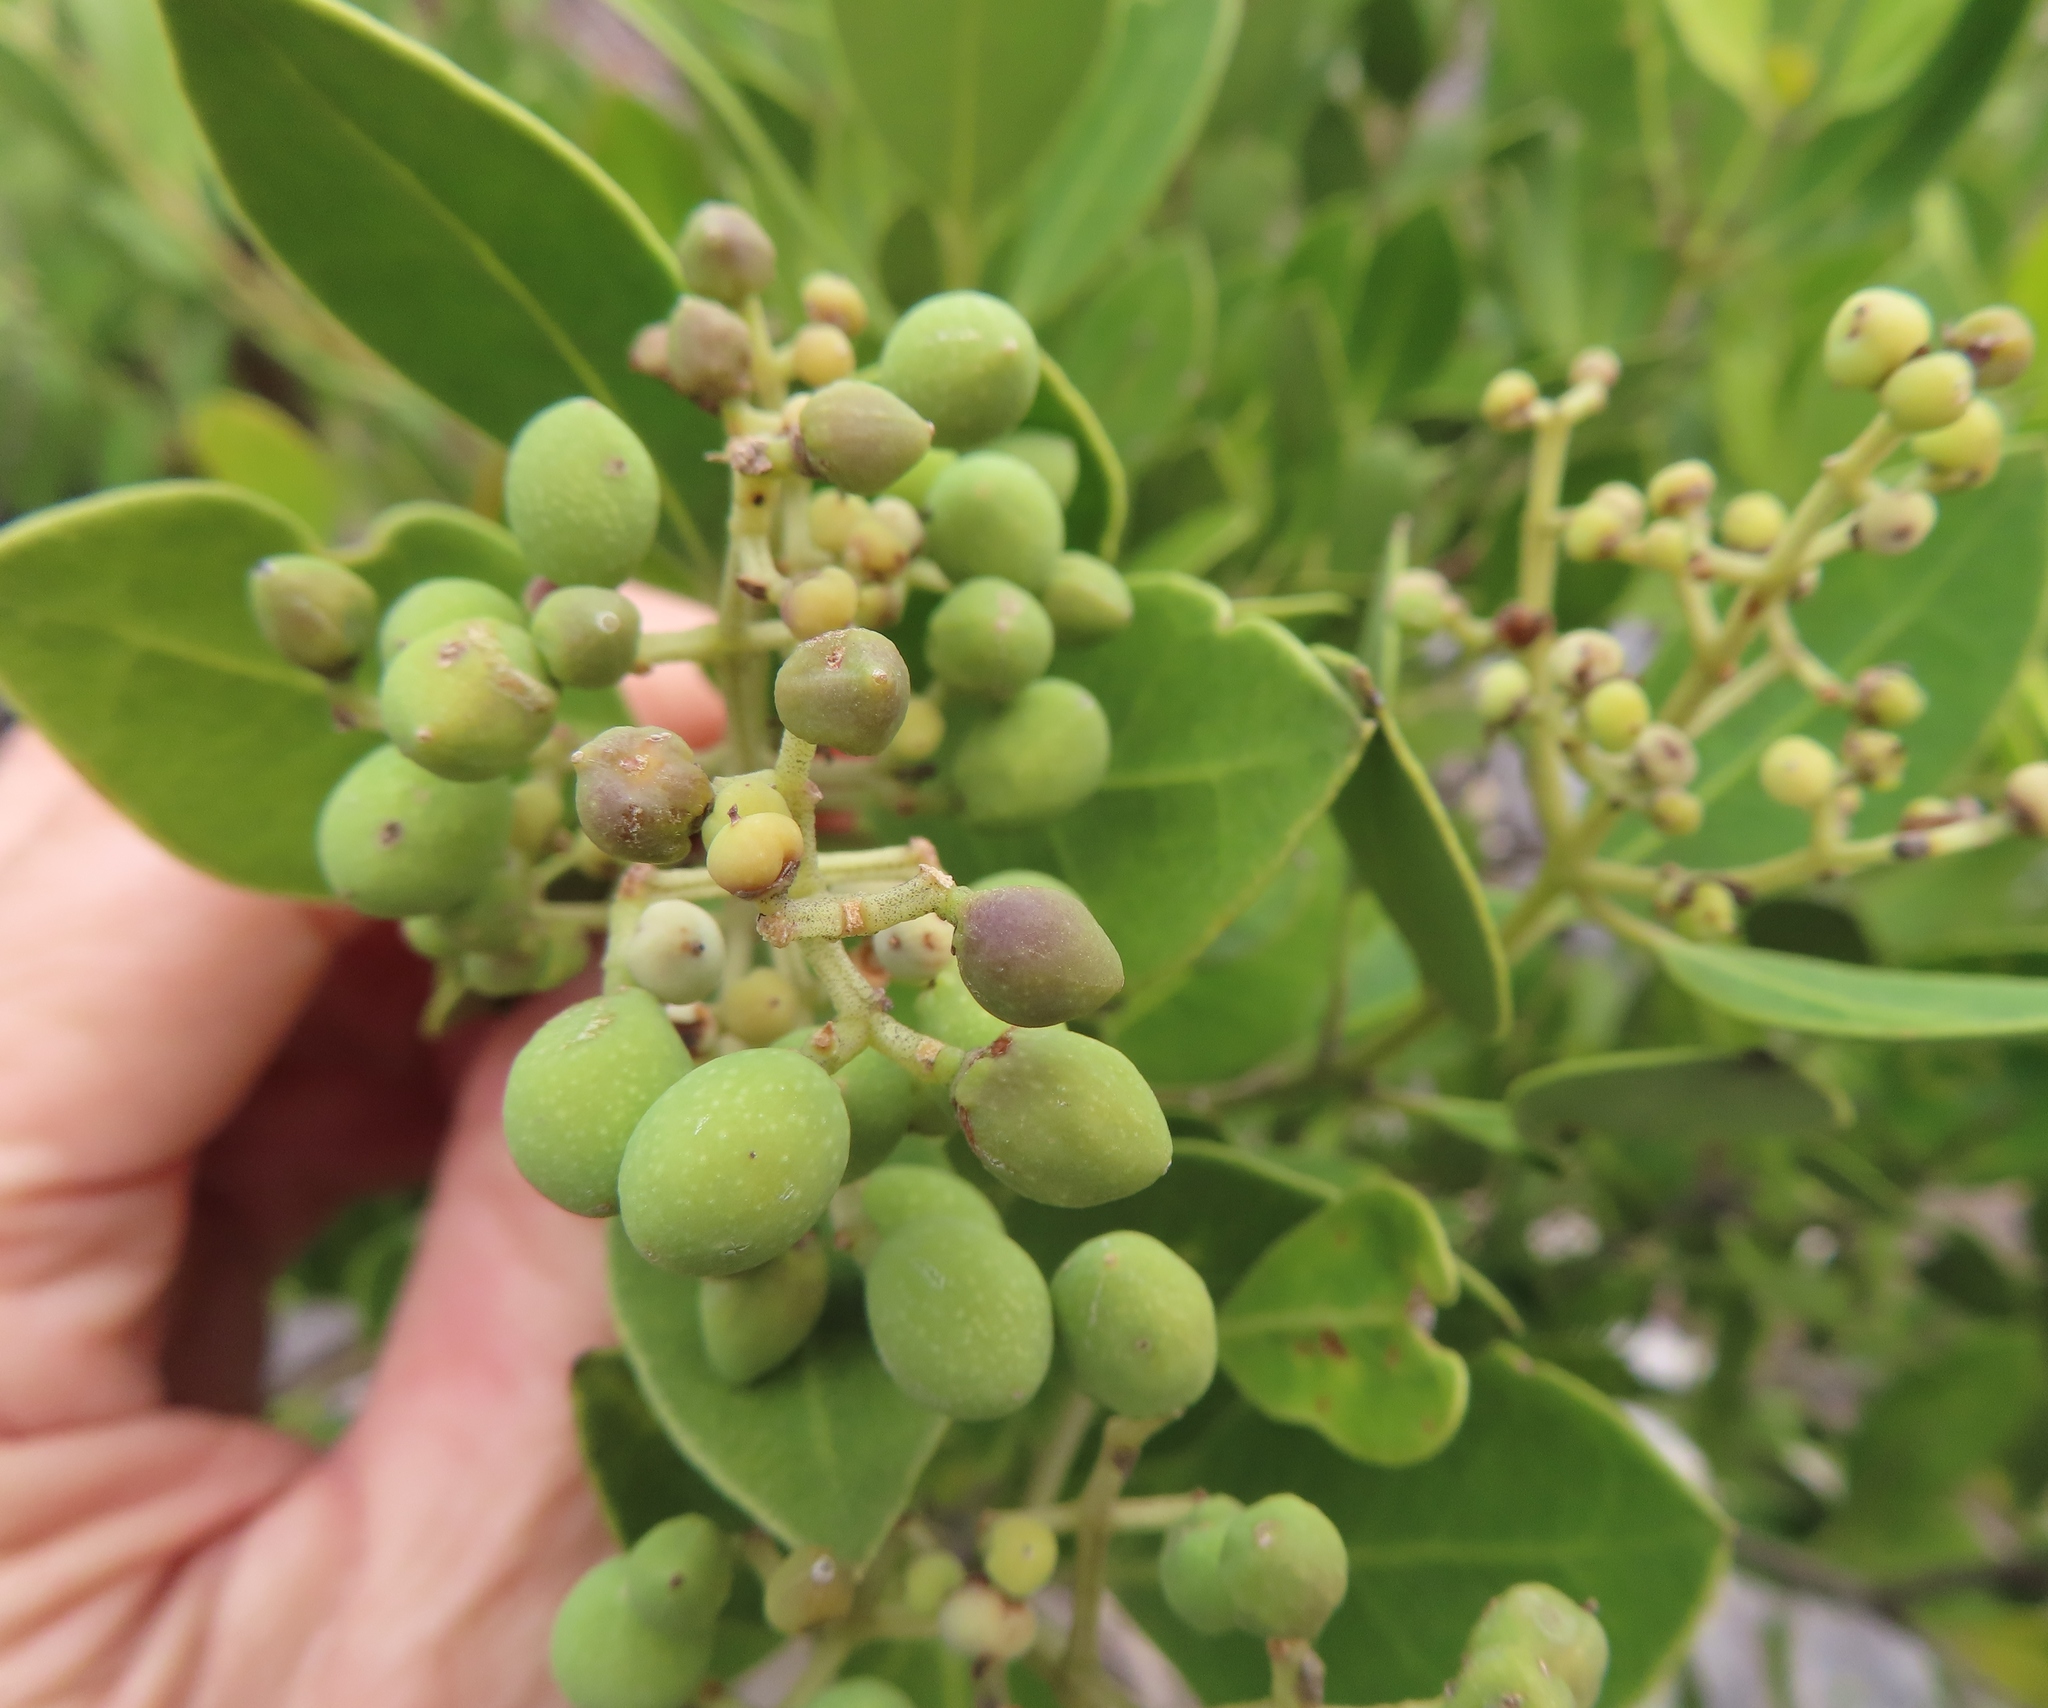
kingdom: Plantae
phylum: Tracheophyta
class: Magnoliopsida
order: Lamiales
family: Oleaceae
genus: Olea
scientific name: Olea capensis
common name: Black ironwood
